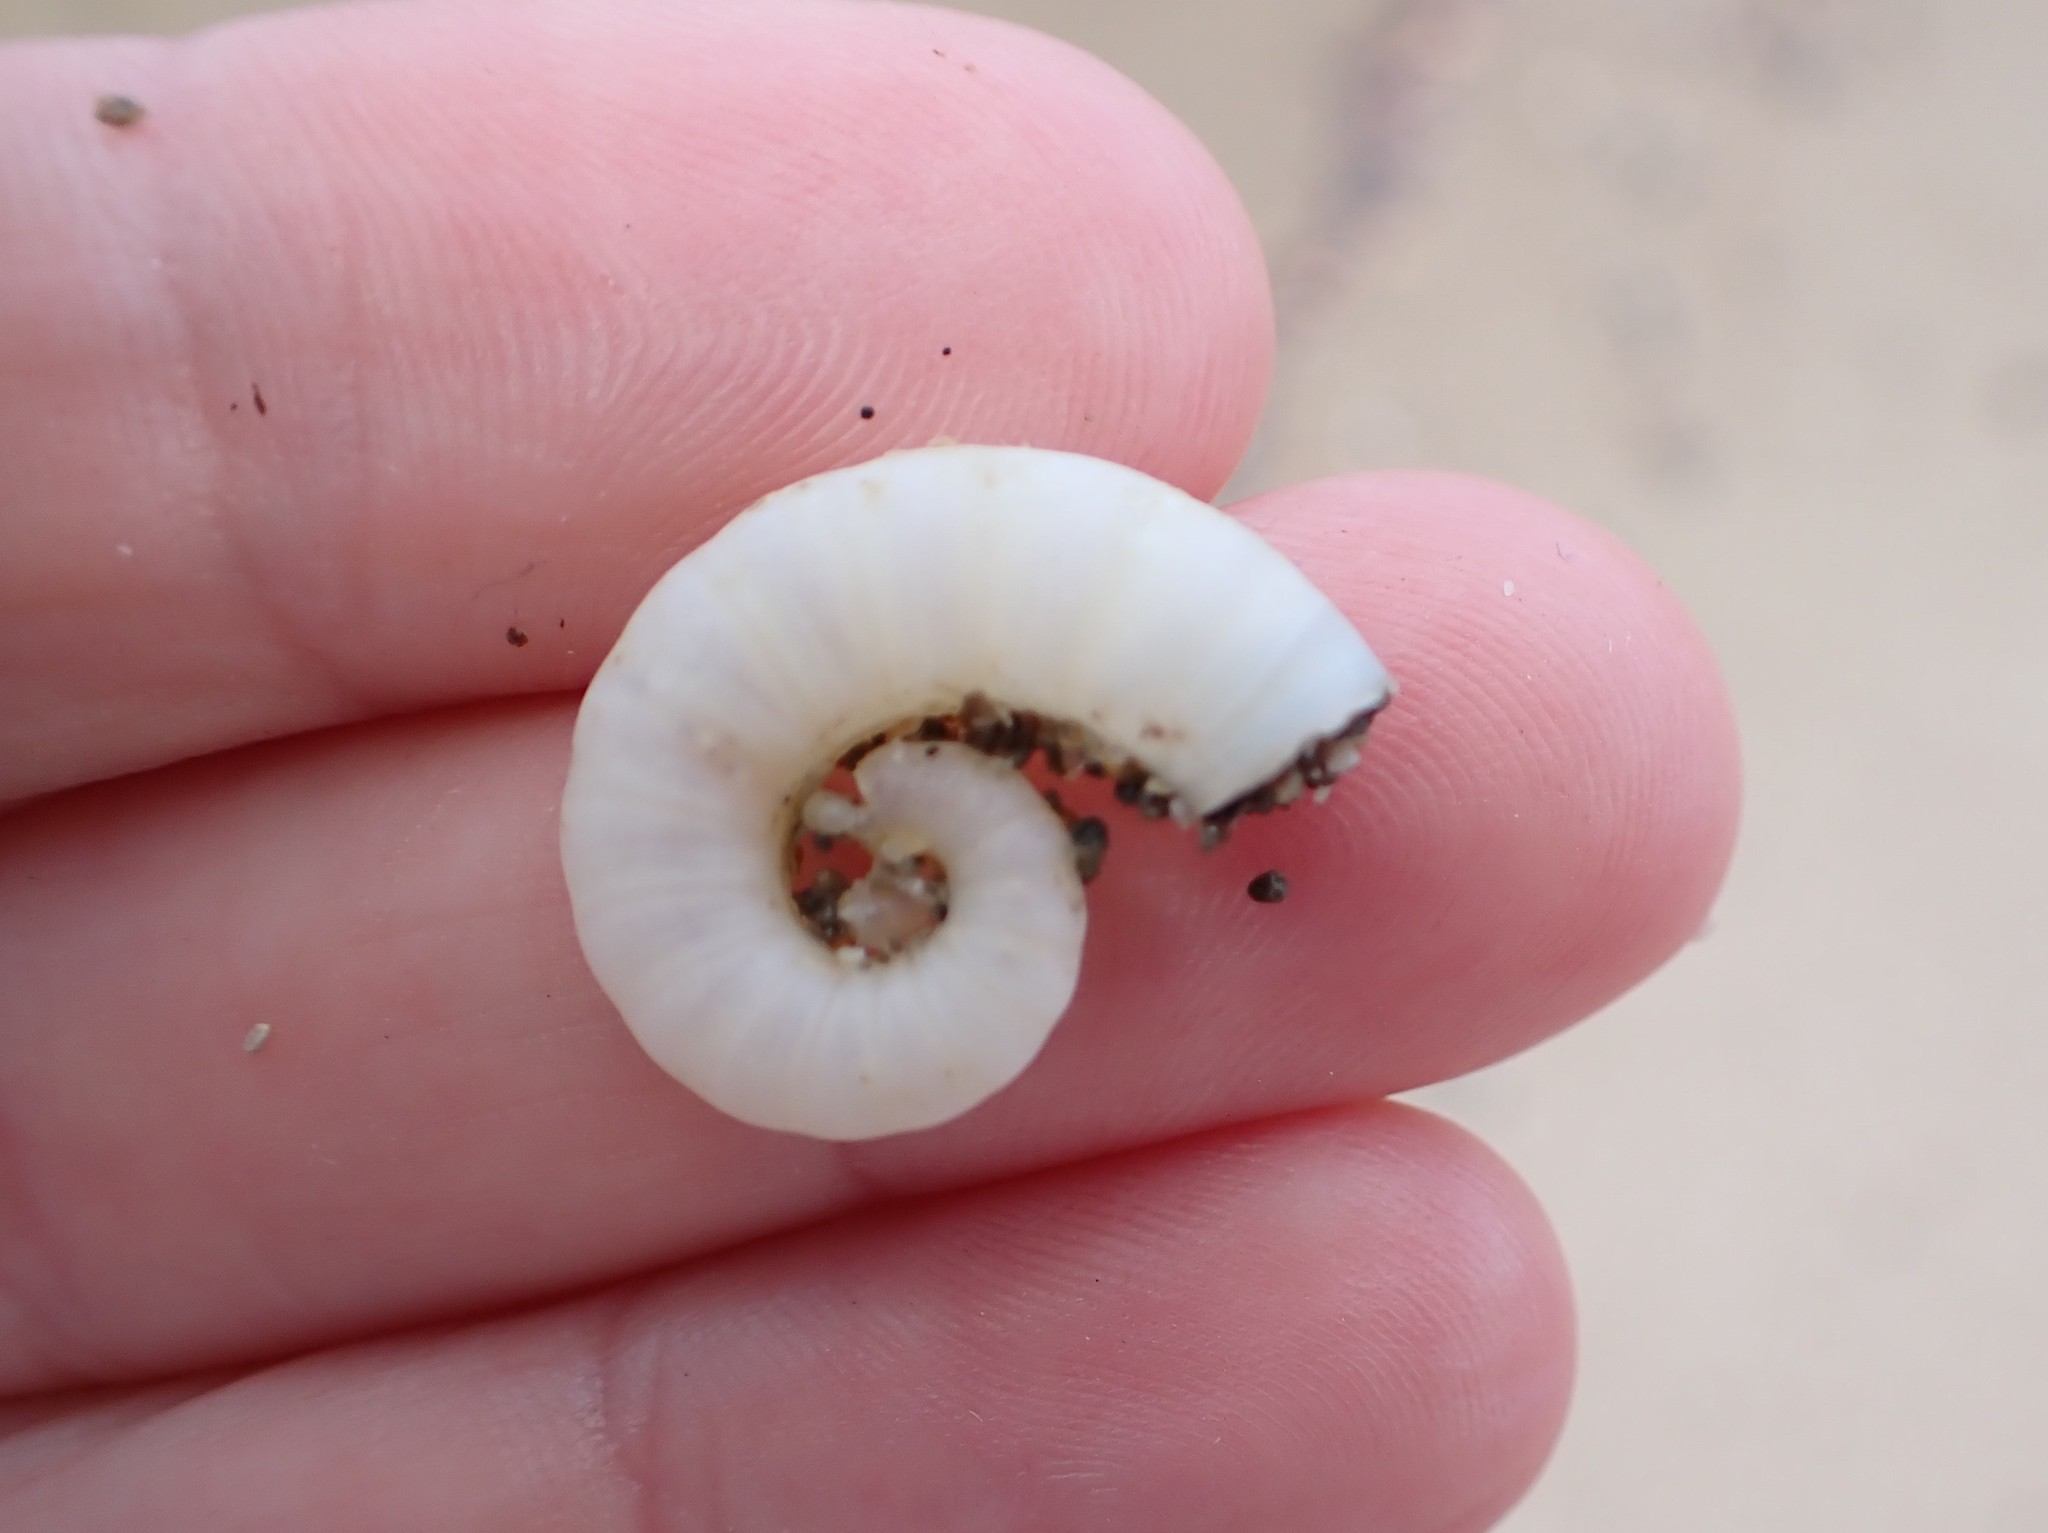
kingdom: Animalia
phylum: Mollusca
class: Cephalopoda
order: Spirulida
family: Spirulidae
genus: Spirula
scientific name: Spirula spirula
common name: Ram's horn squid
